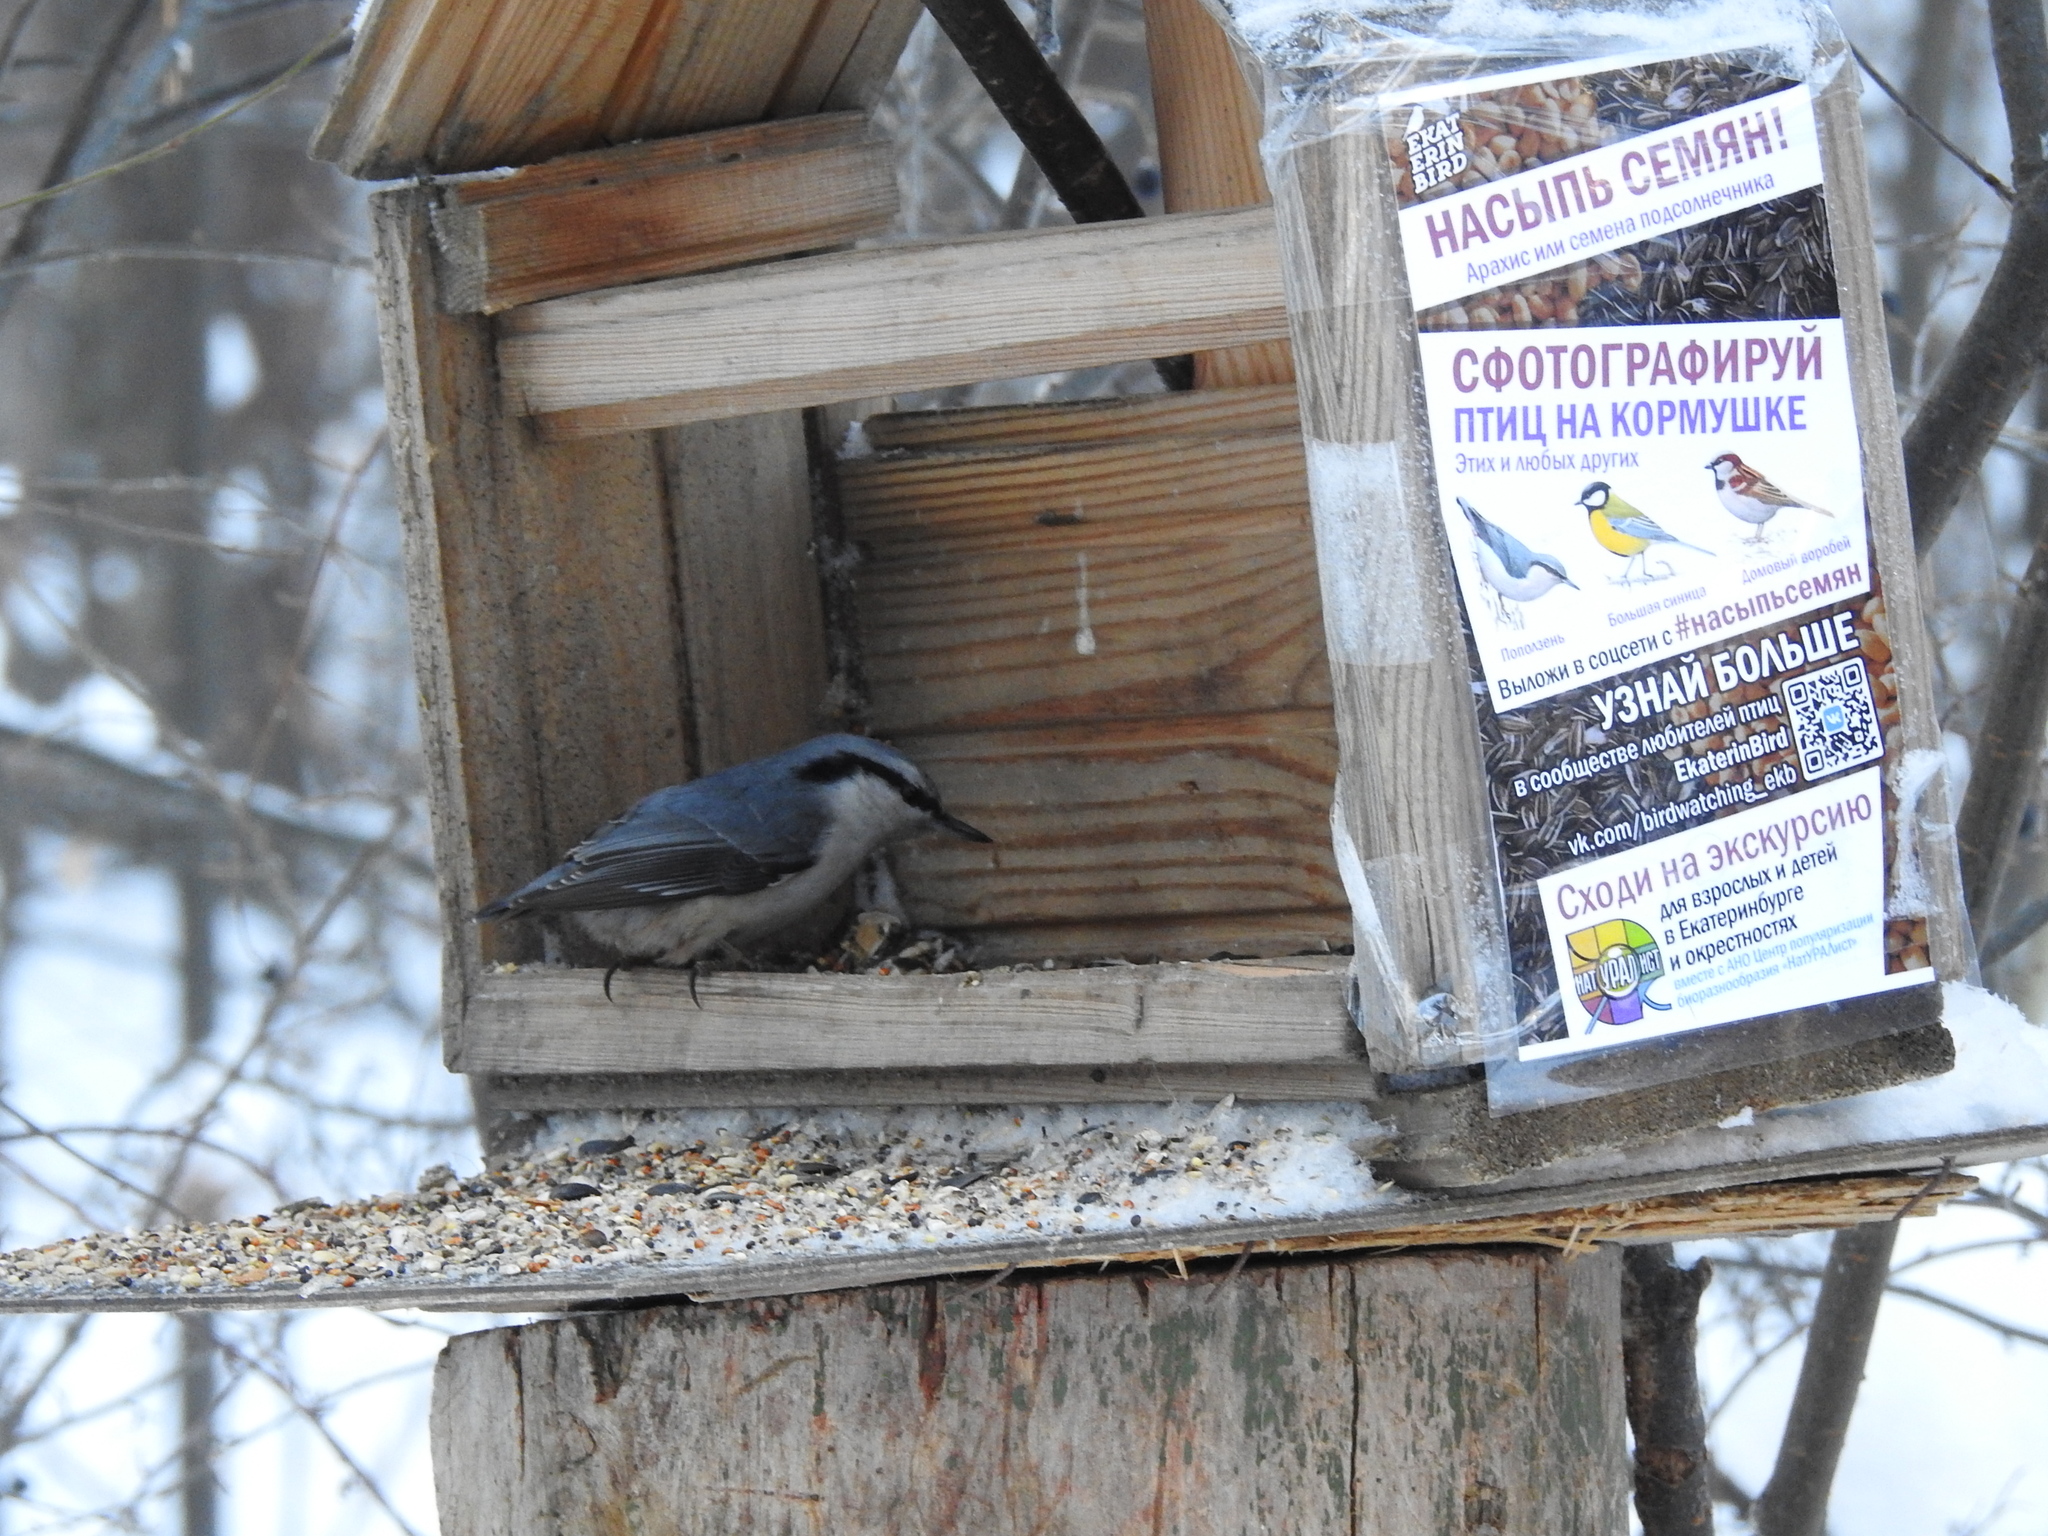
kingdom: Animalia
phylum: Chordata
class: Aves
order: Passeriformes
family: Sittidae
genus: Sitta
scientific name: Sitta europaea
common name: Eurasian nuthatch
